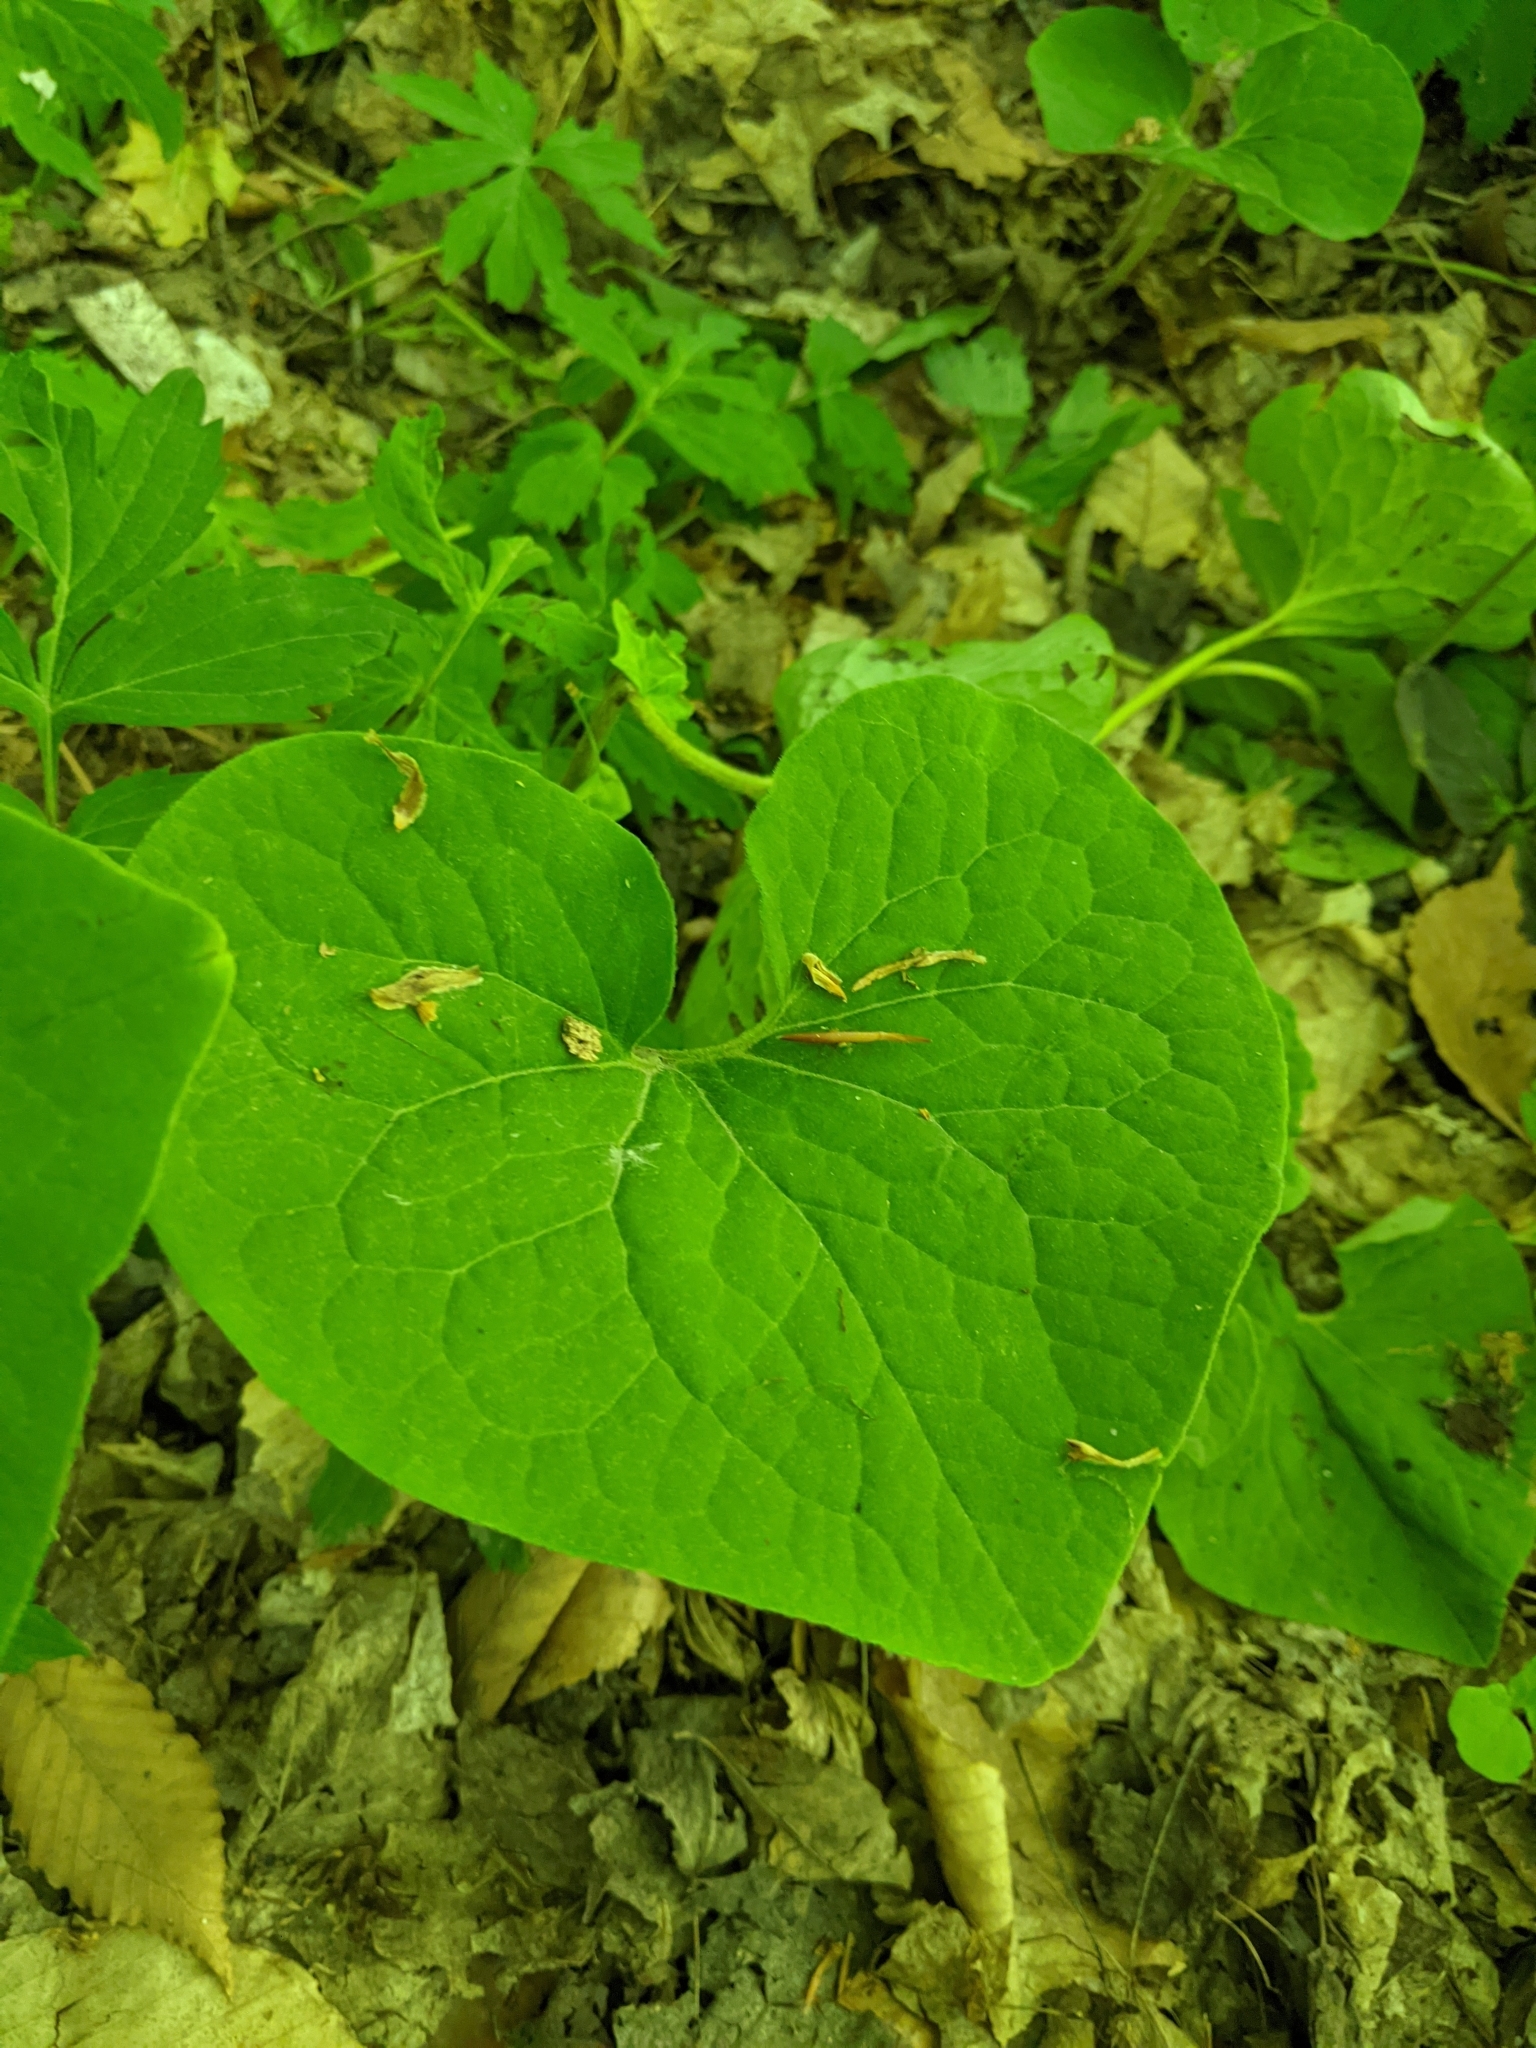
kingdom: Plantae
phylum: Tracheophyta
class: Magnoliopsida
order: Piperales
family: Aristolochiaceae
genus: Asarum
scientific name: Asarum canadense
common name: Wild ginger
